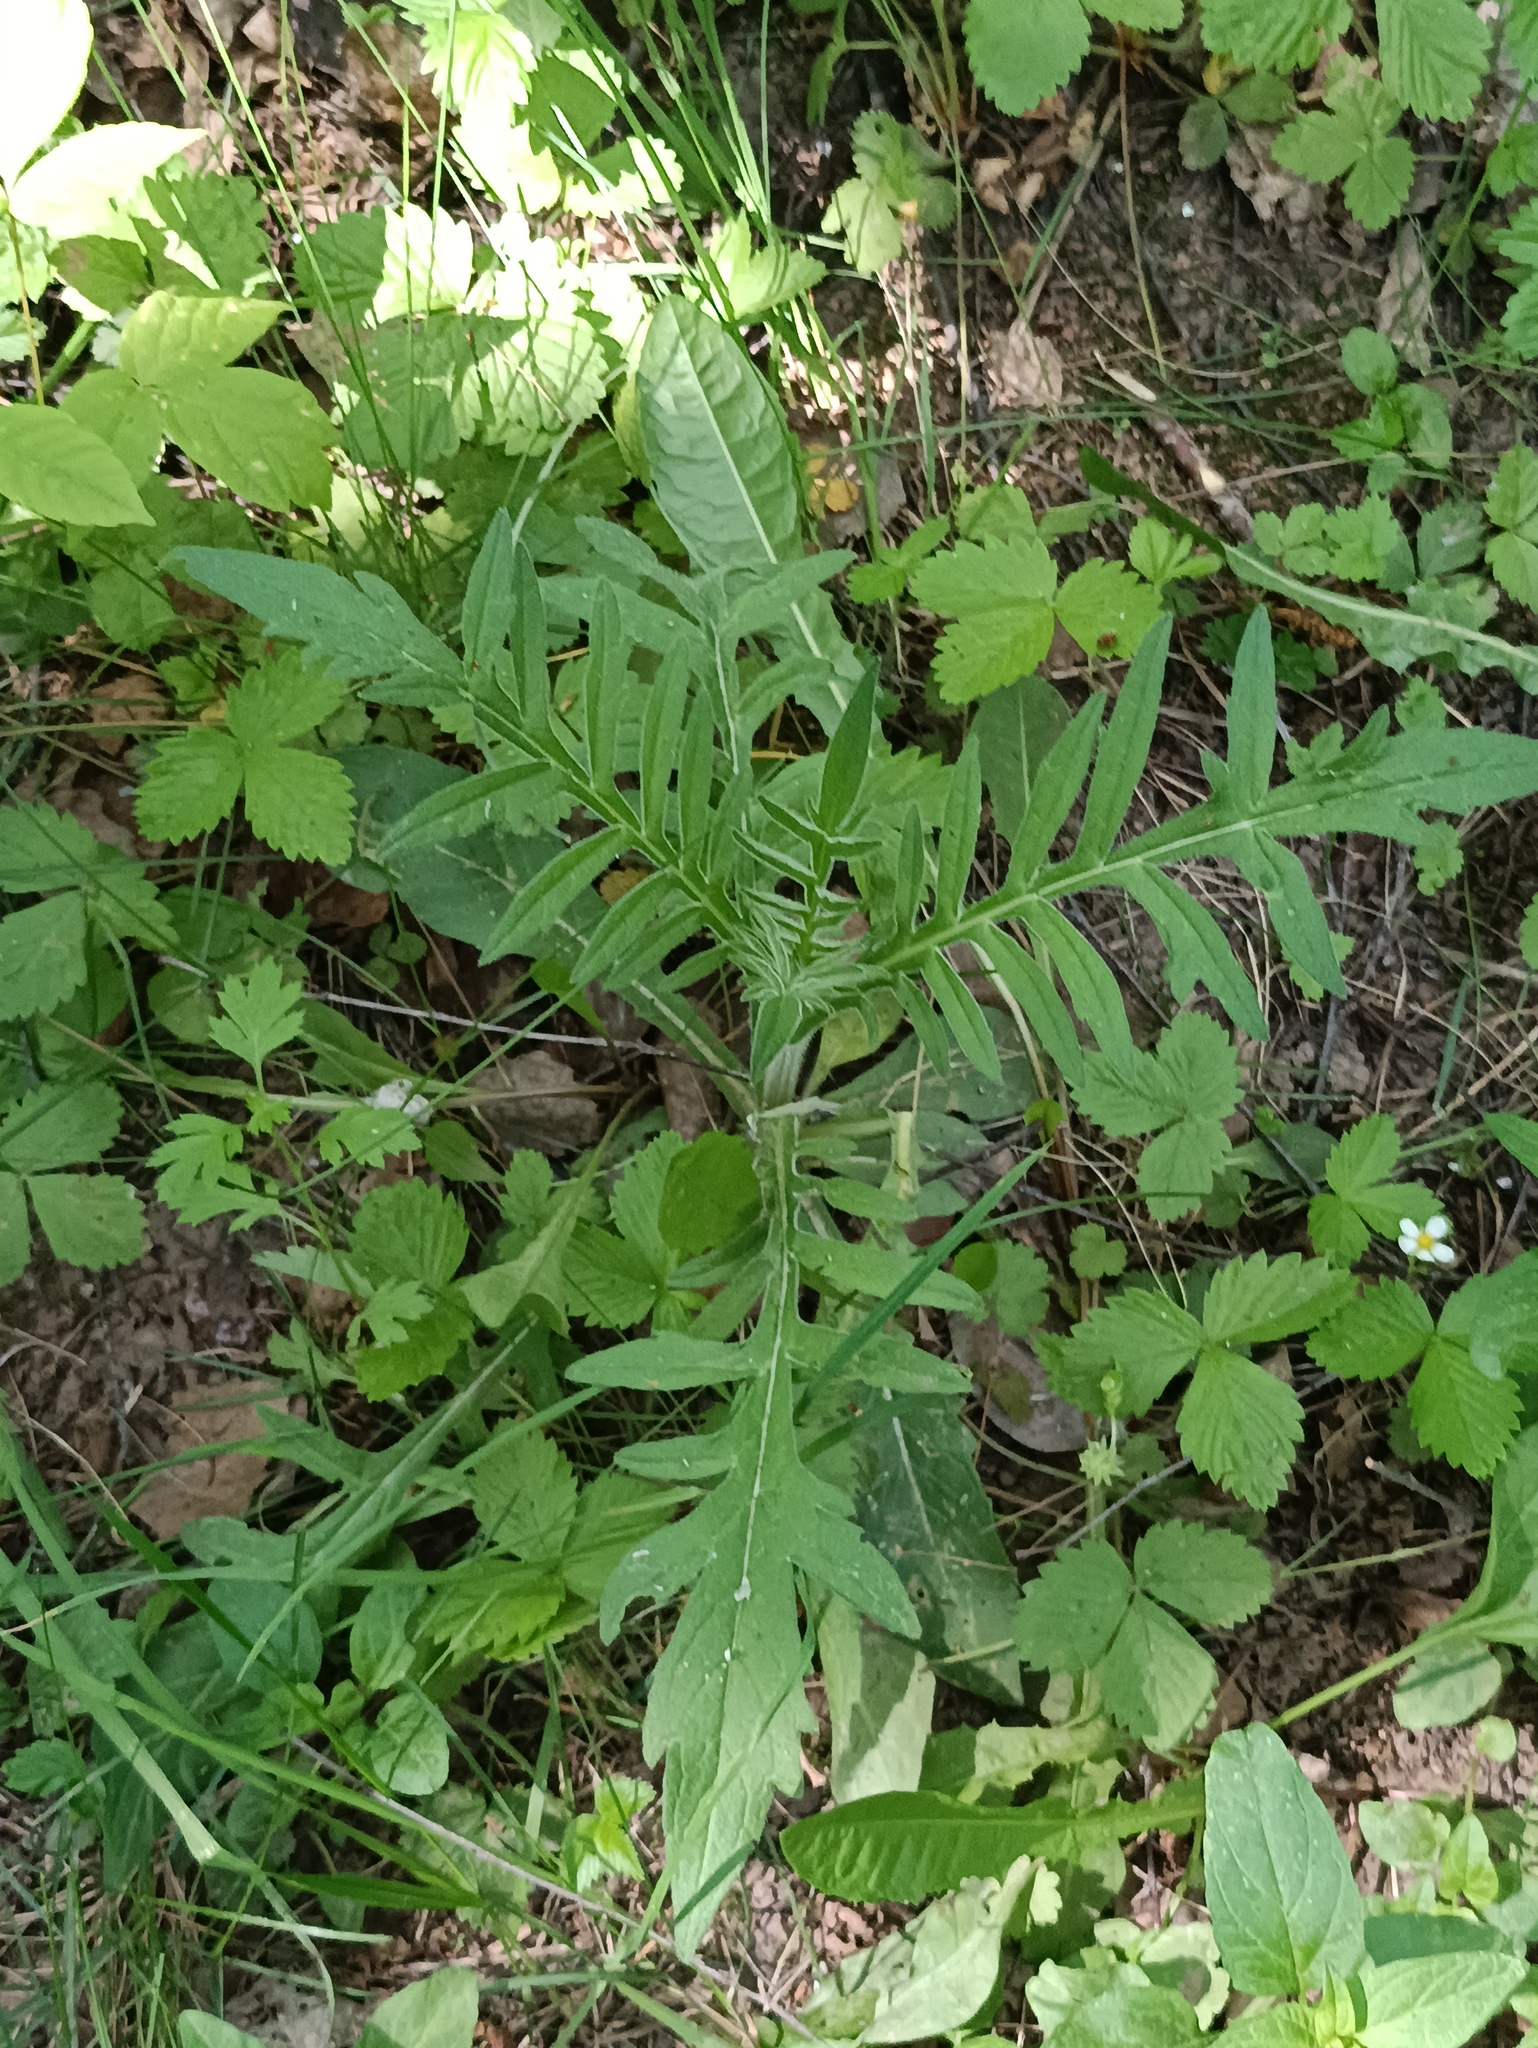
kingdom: Plantae
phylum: Tracheophyta
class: Magnoliopsida
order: Dipsacales
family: Caprifoliaceae
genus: Knautia
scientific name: Knautia arvensis
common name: Field scabiosa
